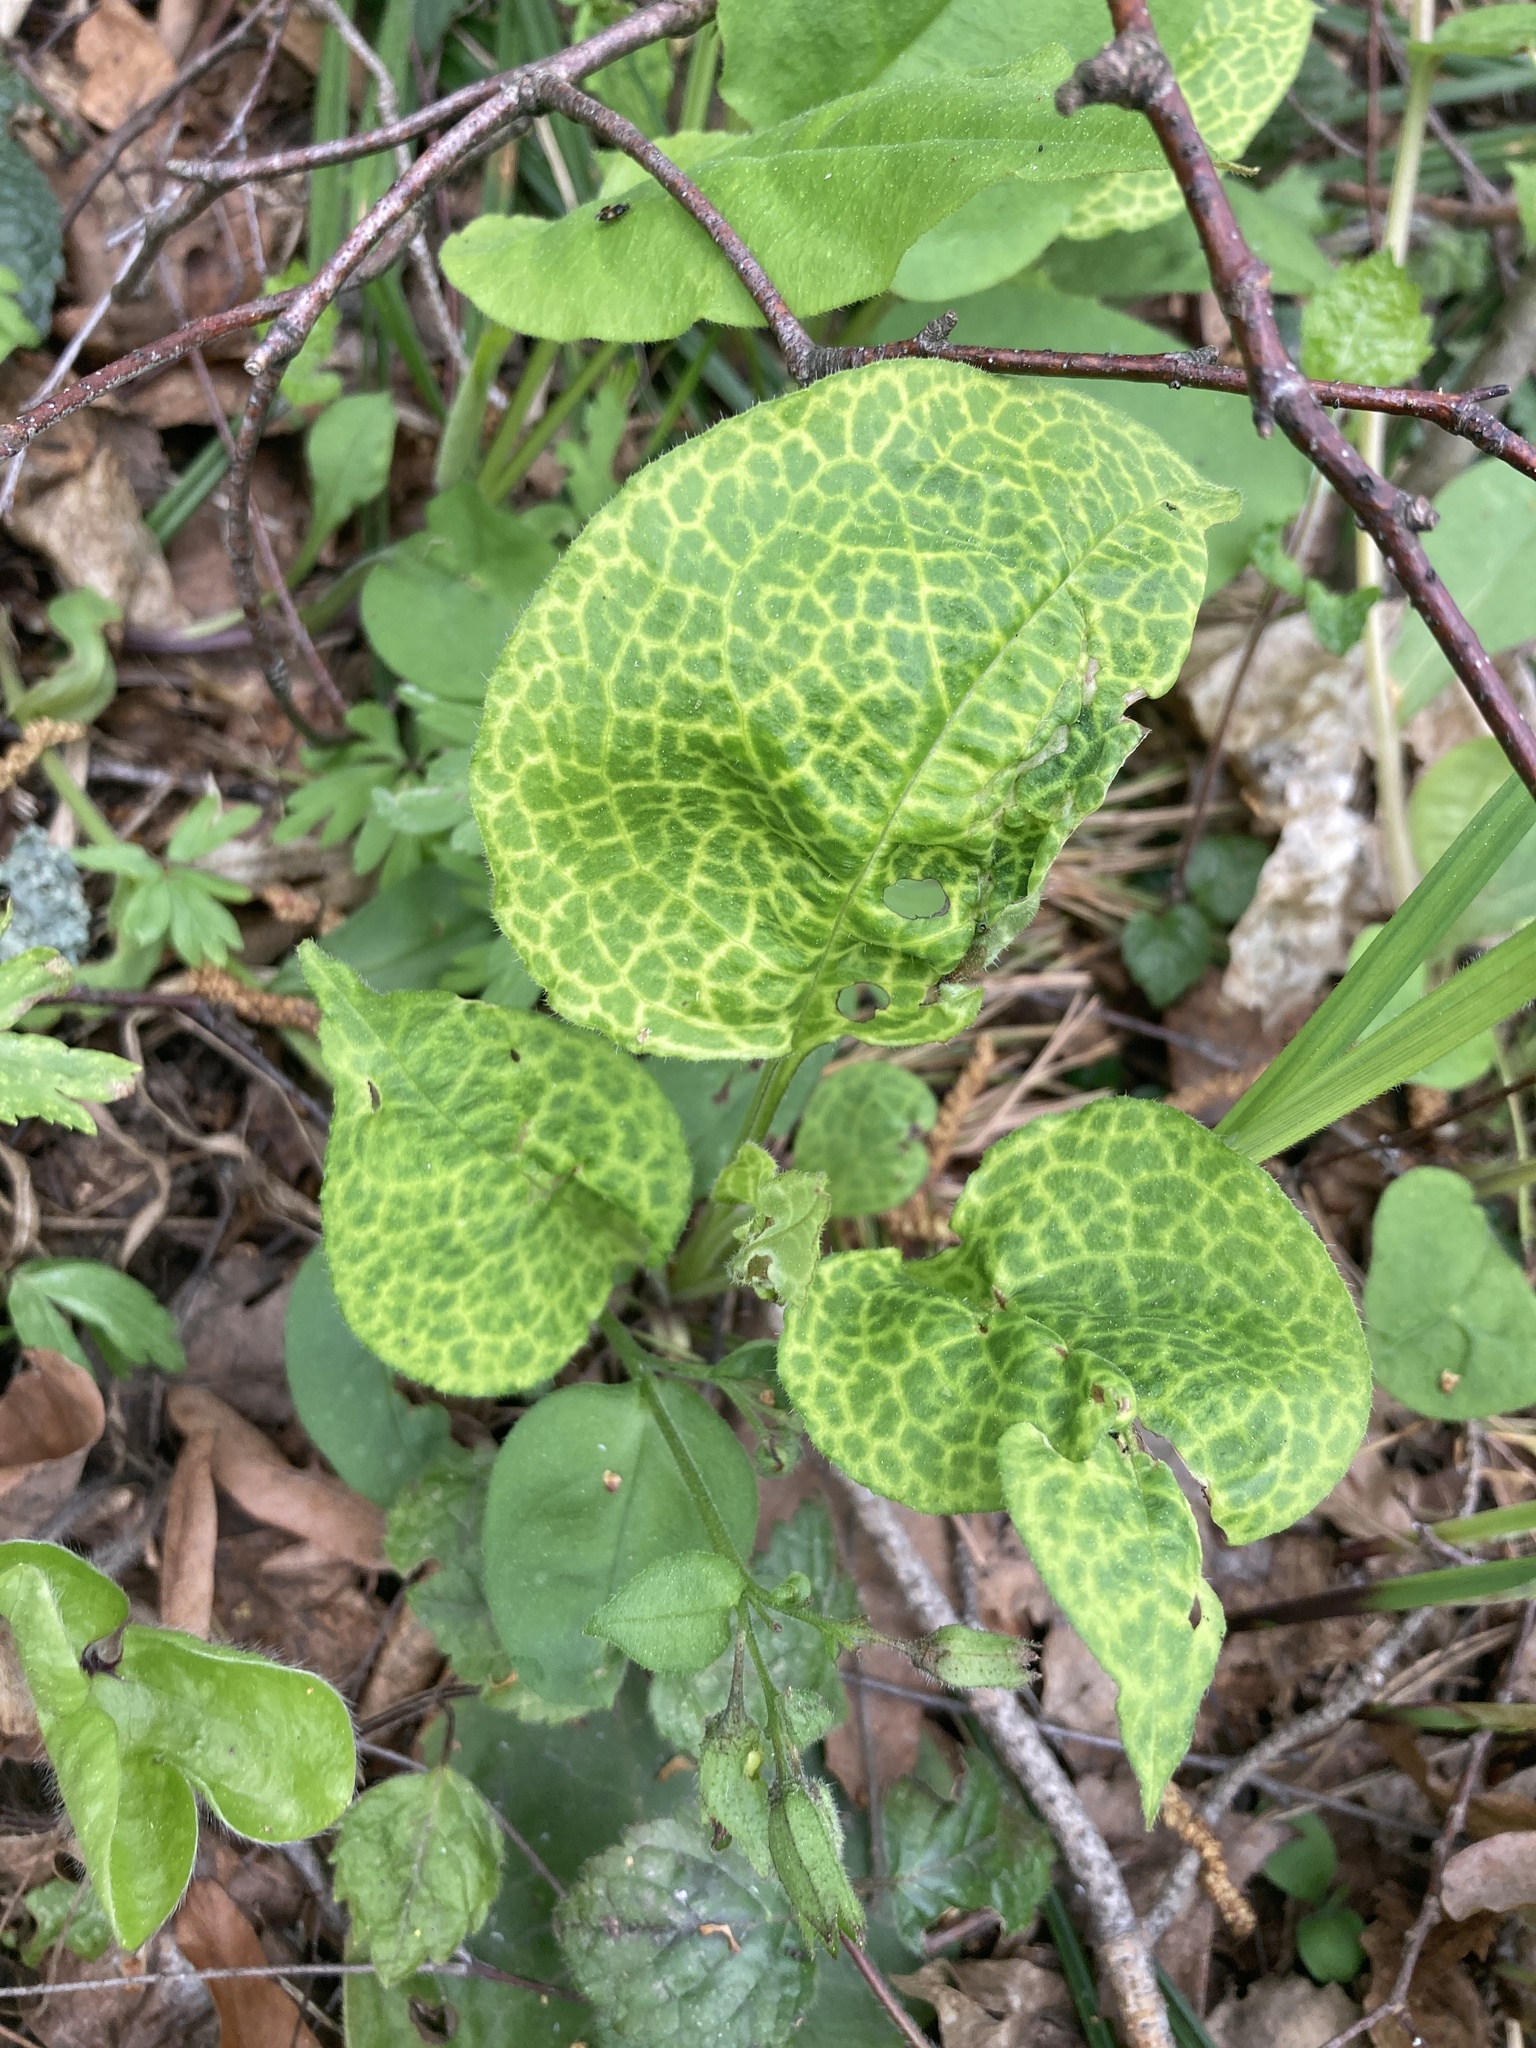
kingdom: Plantae
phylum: Tracheophyta
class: Magnoliopsida
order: Boraginales
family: Boraginaceae
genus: Pulmonaria
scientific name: Pulmonaria obscura
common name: Suffolk lungwort
